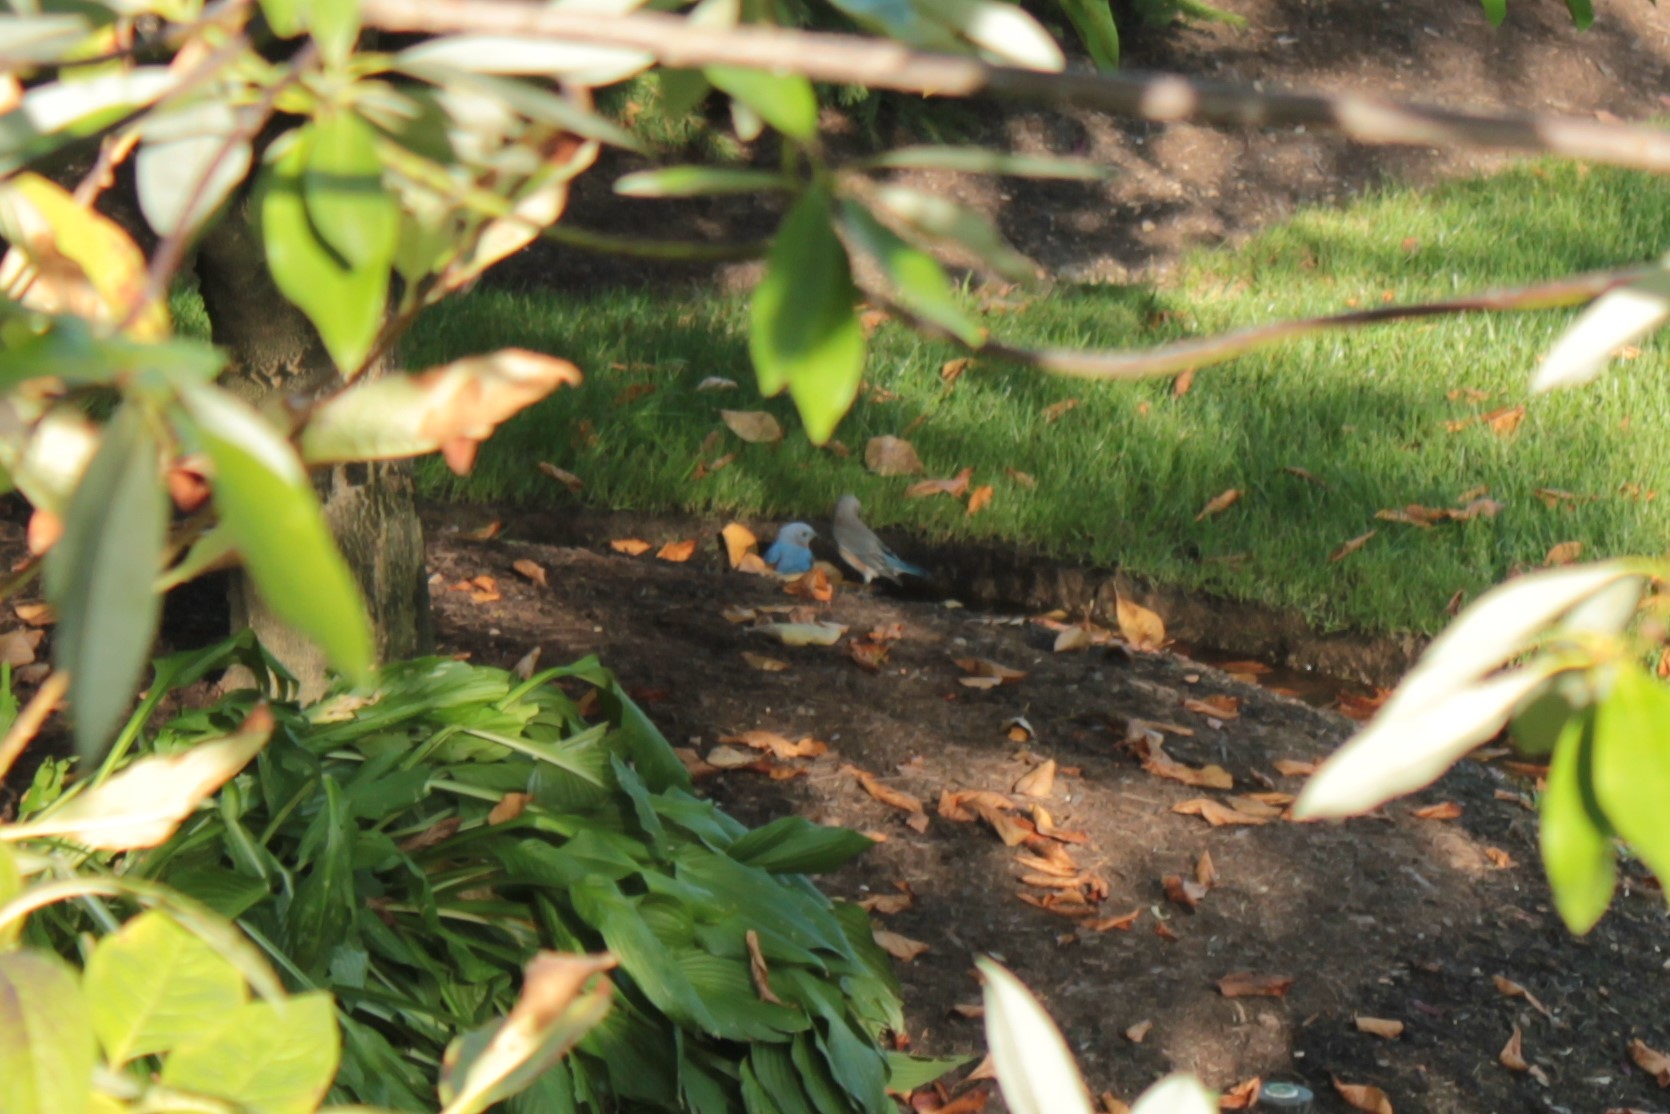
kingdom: Animalia
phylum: Chordata
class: Aves
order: Passeriformes
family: Turdidae
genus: Sialia
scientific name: Sialia sialis
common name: Eastern bluebird
